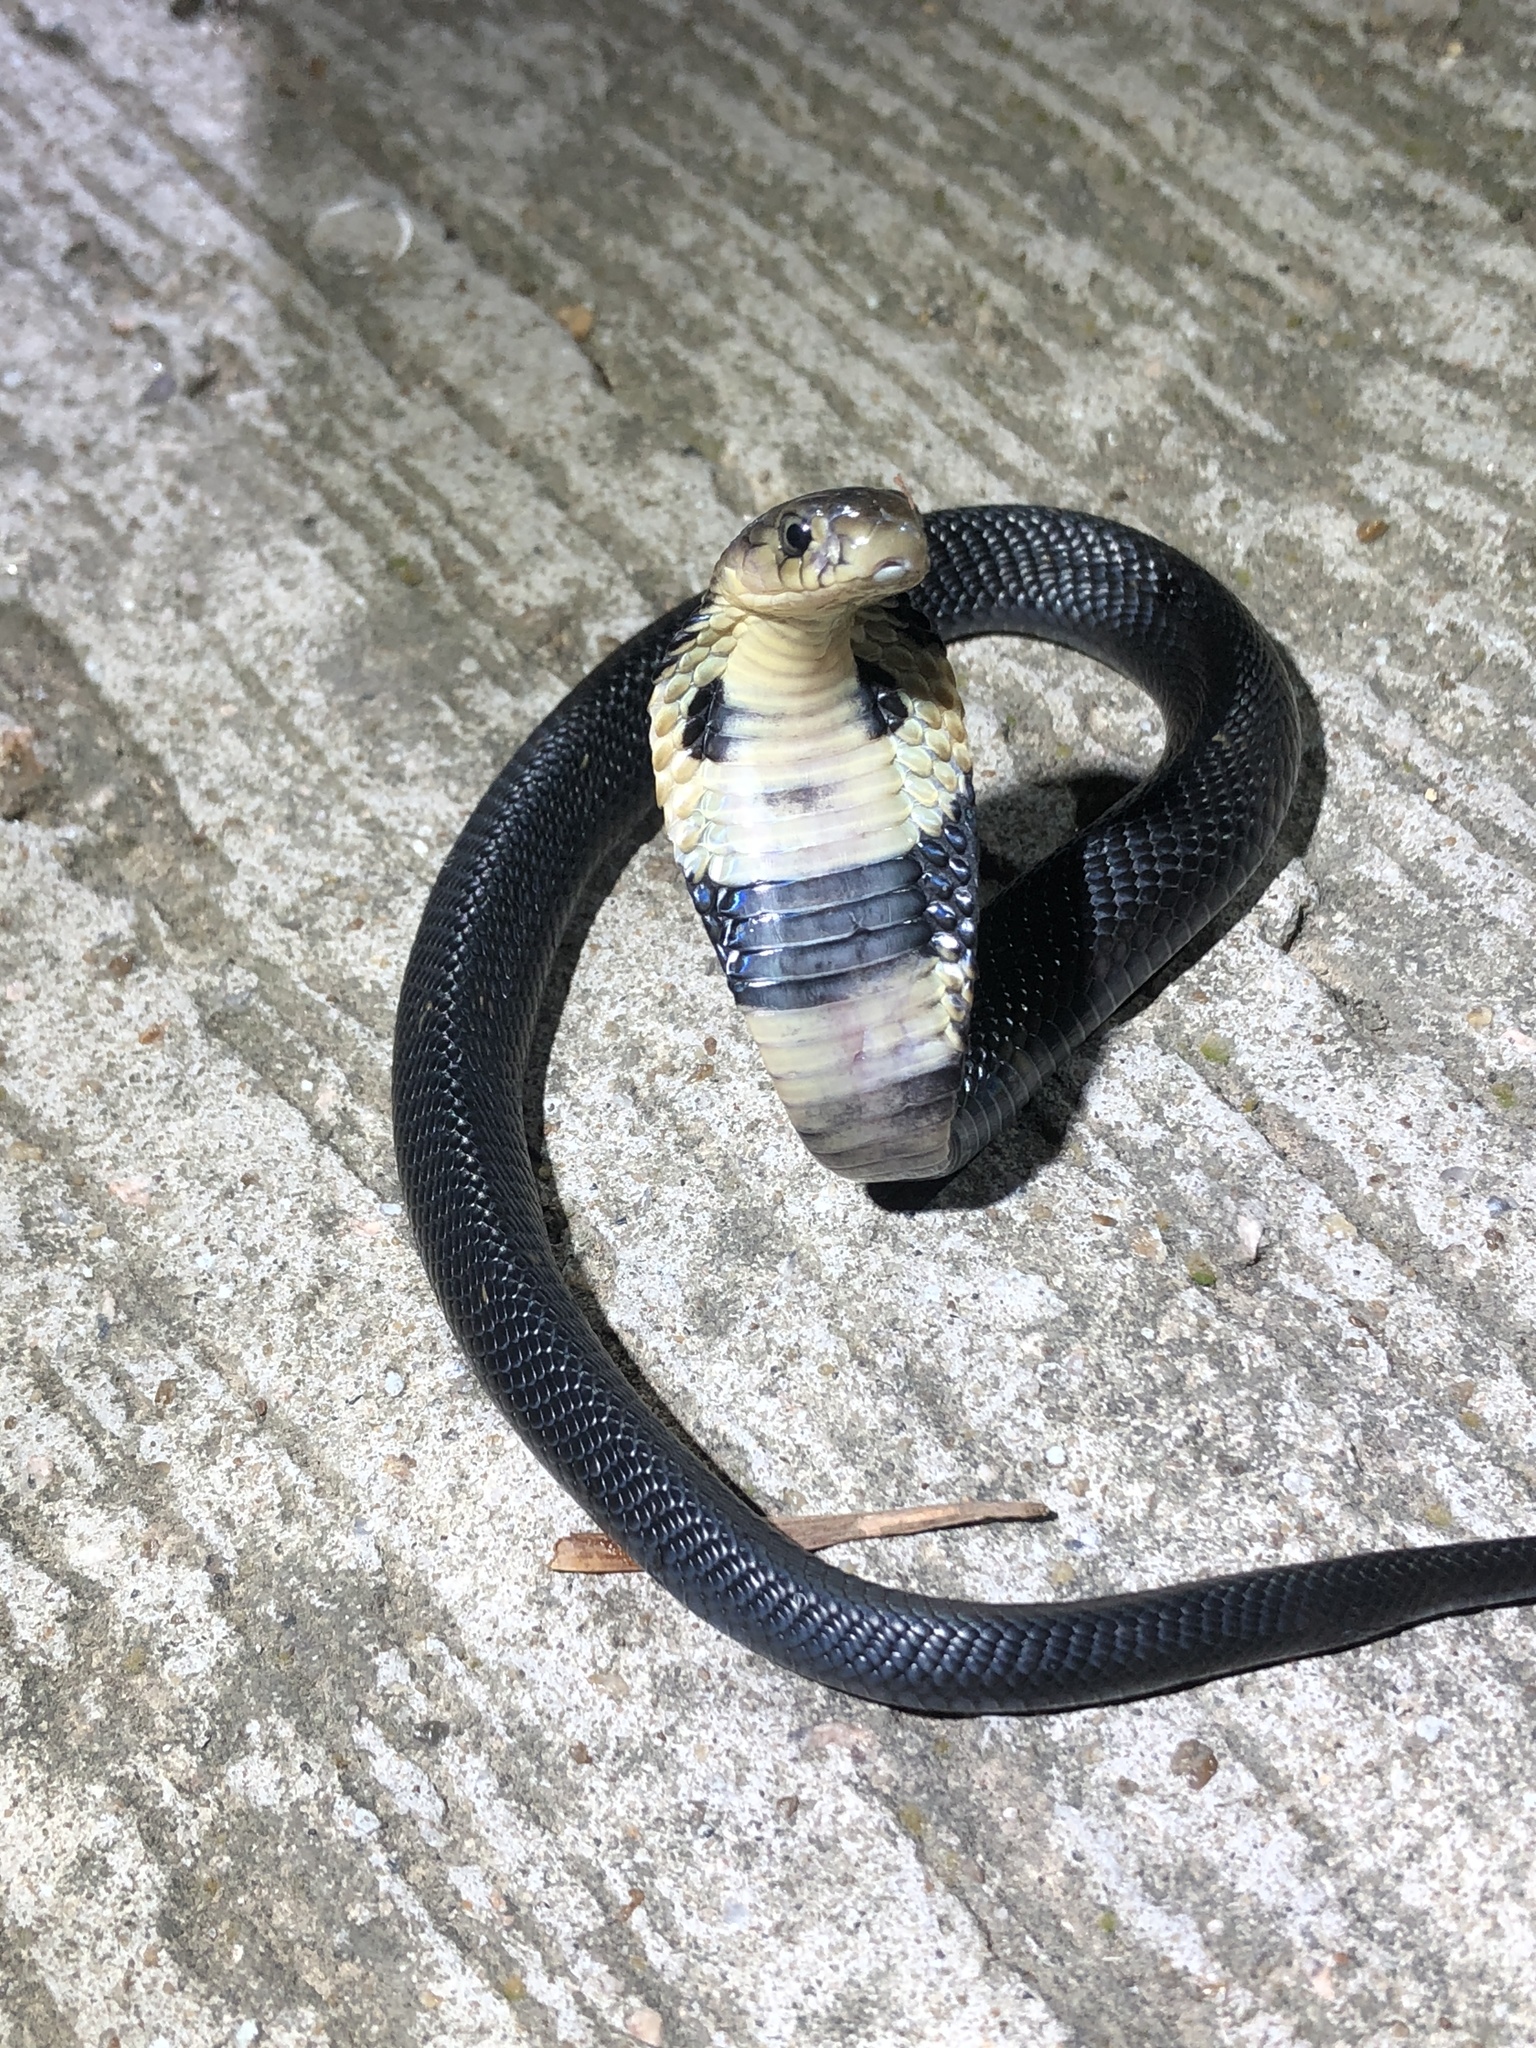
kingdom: Animalia
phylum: Chordata
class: Squamata
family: Elapidae
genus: Naja
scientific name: Naja atra
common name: Chinese cobra
